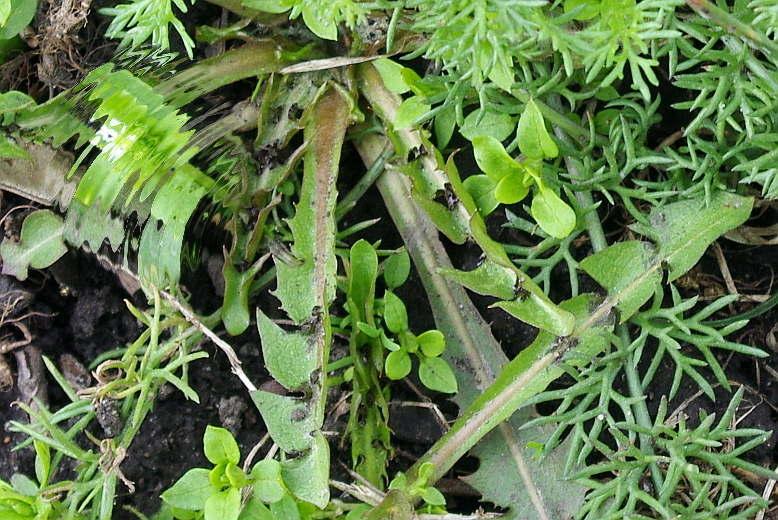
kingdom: Plantae
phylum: Tracheophyta
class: Magnoliopsida
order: Asterales
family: Asteraceae
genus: Taraxacum
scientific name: Taraxacum officinale
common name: Common dandelion
